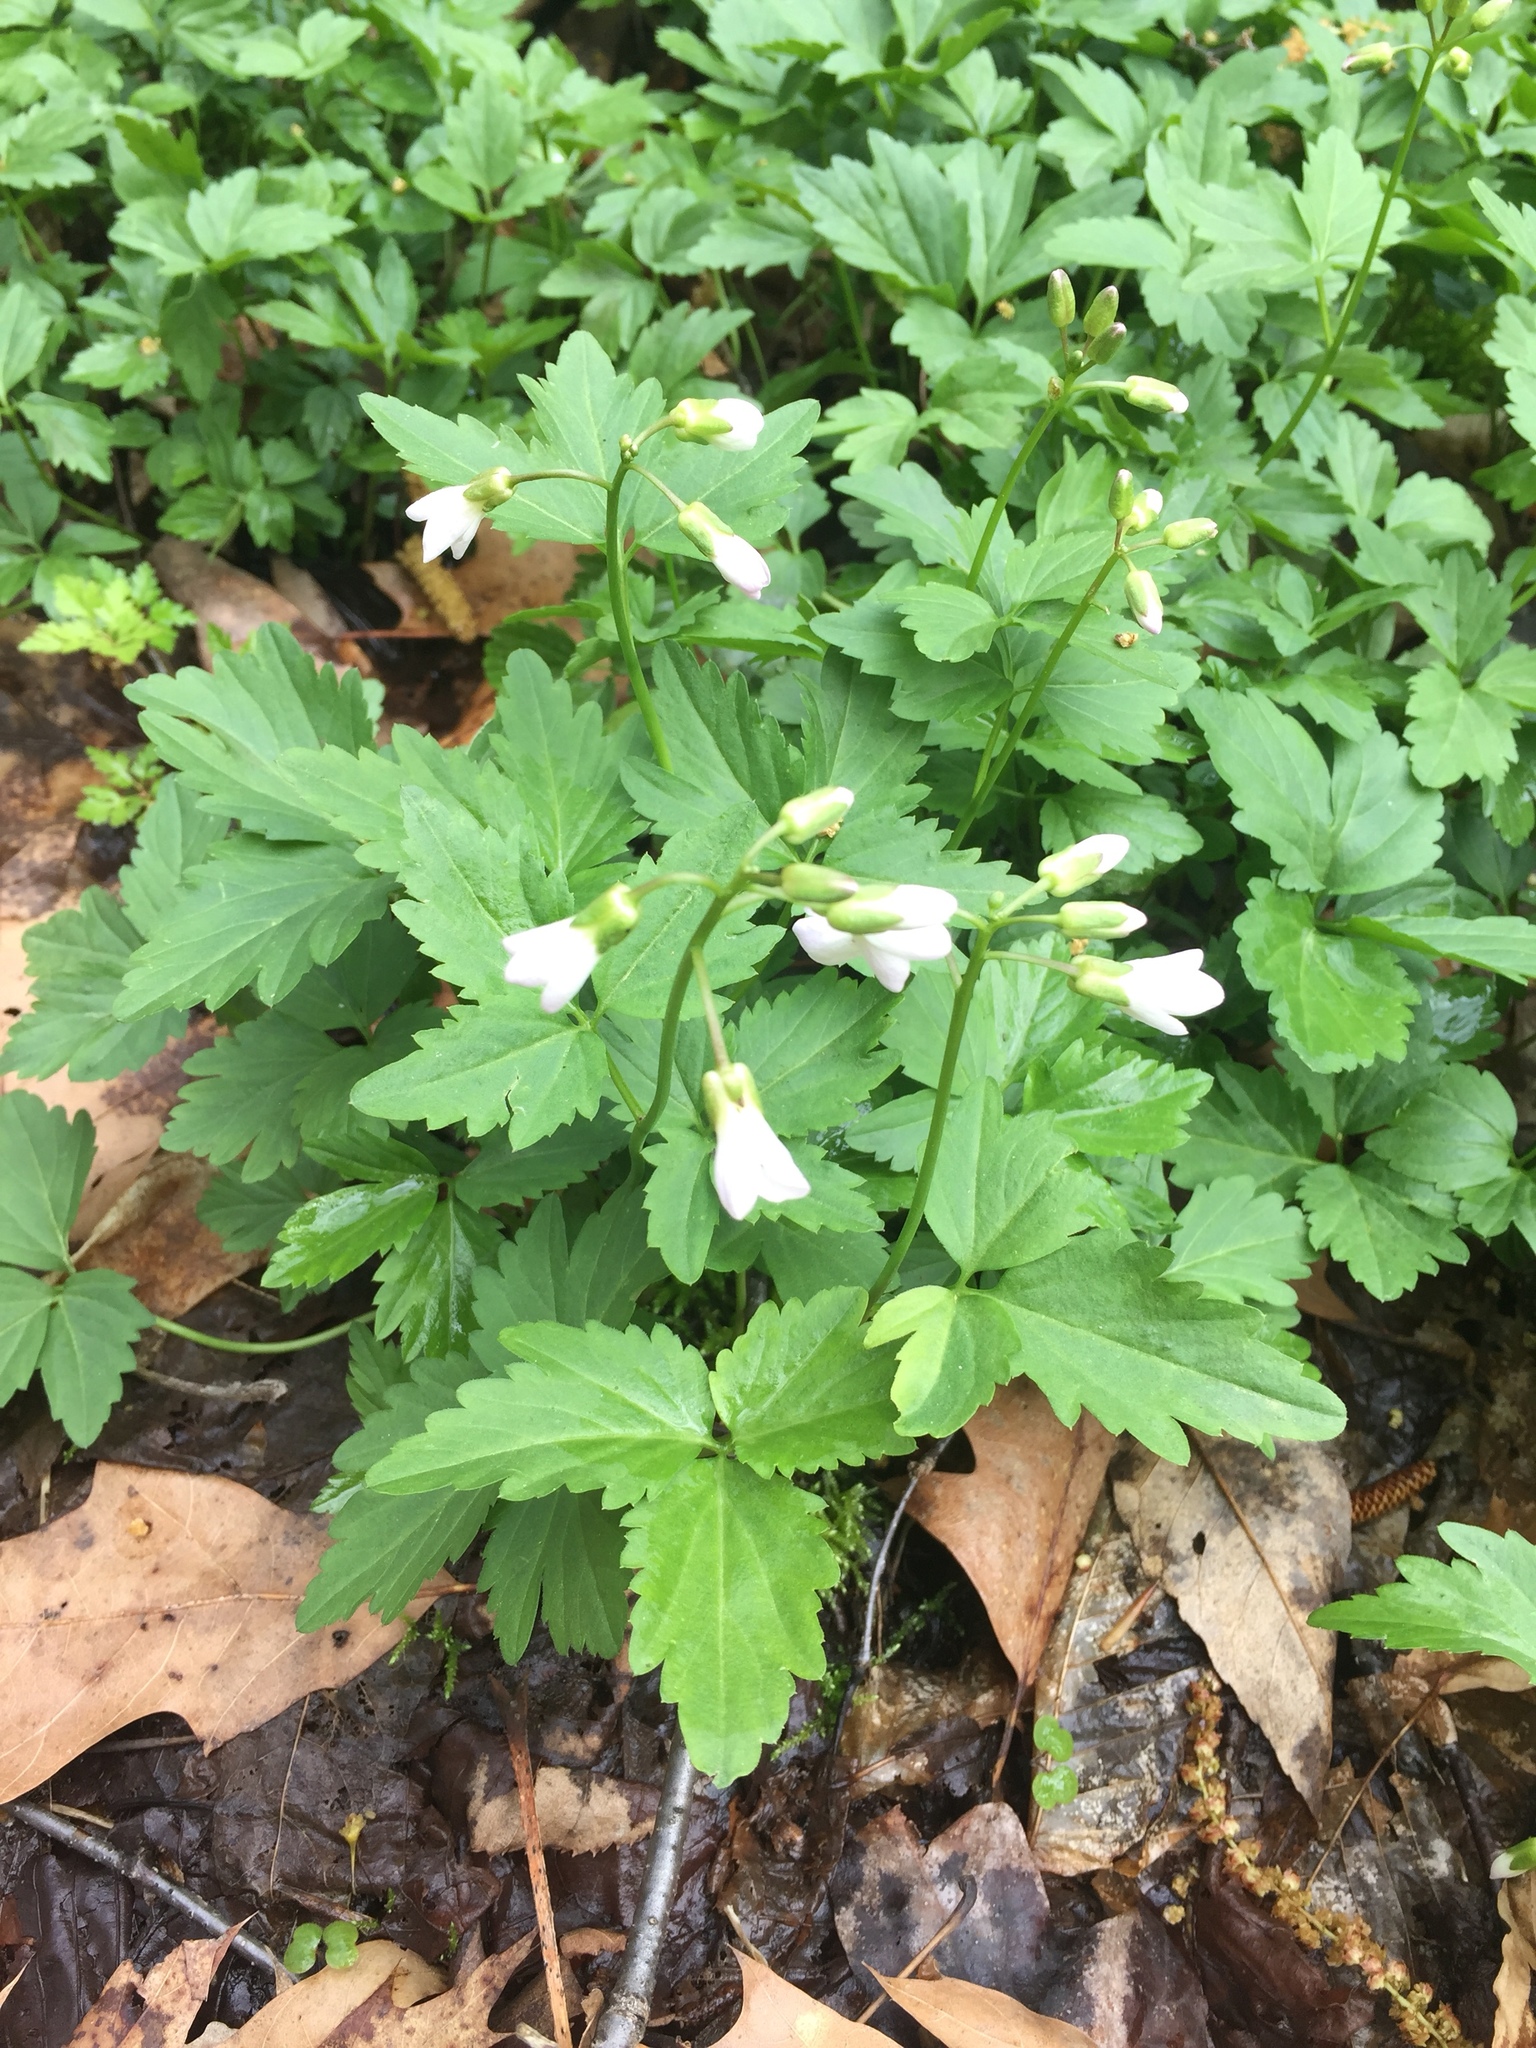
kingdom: Plantae
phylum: Tracheophyta
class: Magnoliopsida
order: Brassicales
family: Brassicaceae
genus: Cardamine
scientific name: Cardamine diphylla
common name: Broad-leaved toothwort
